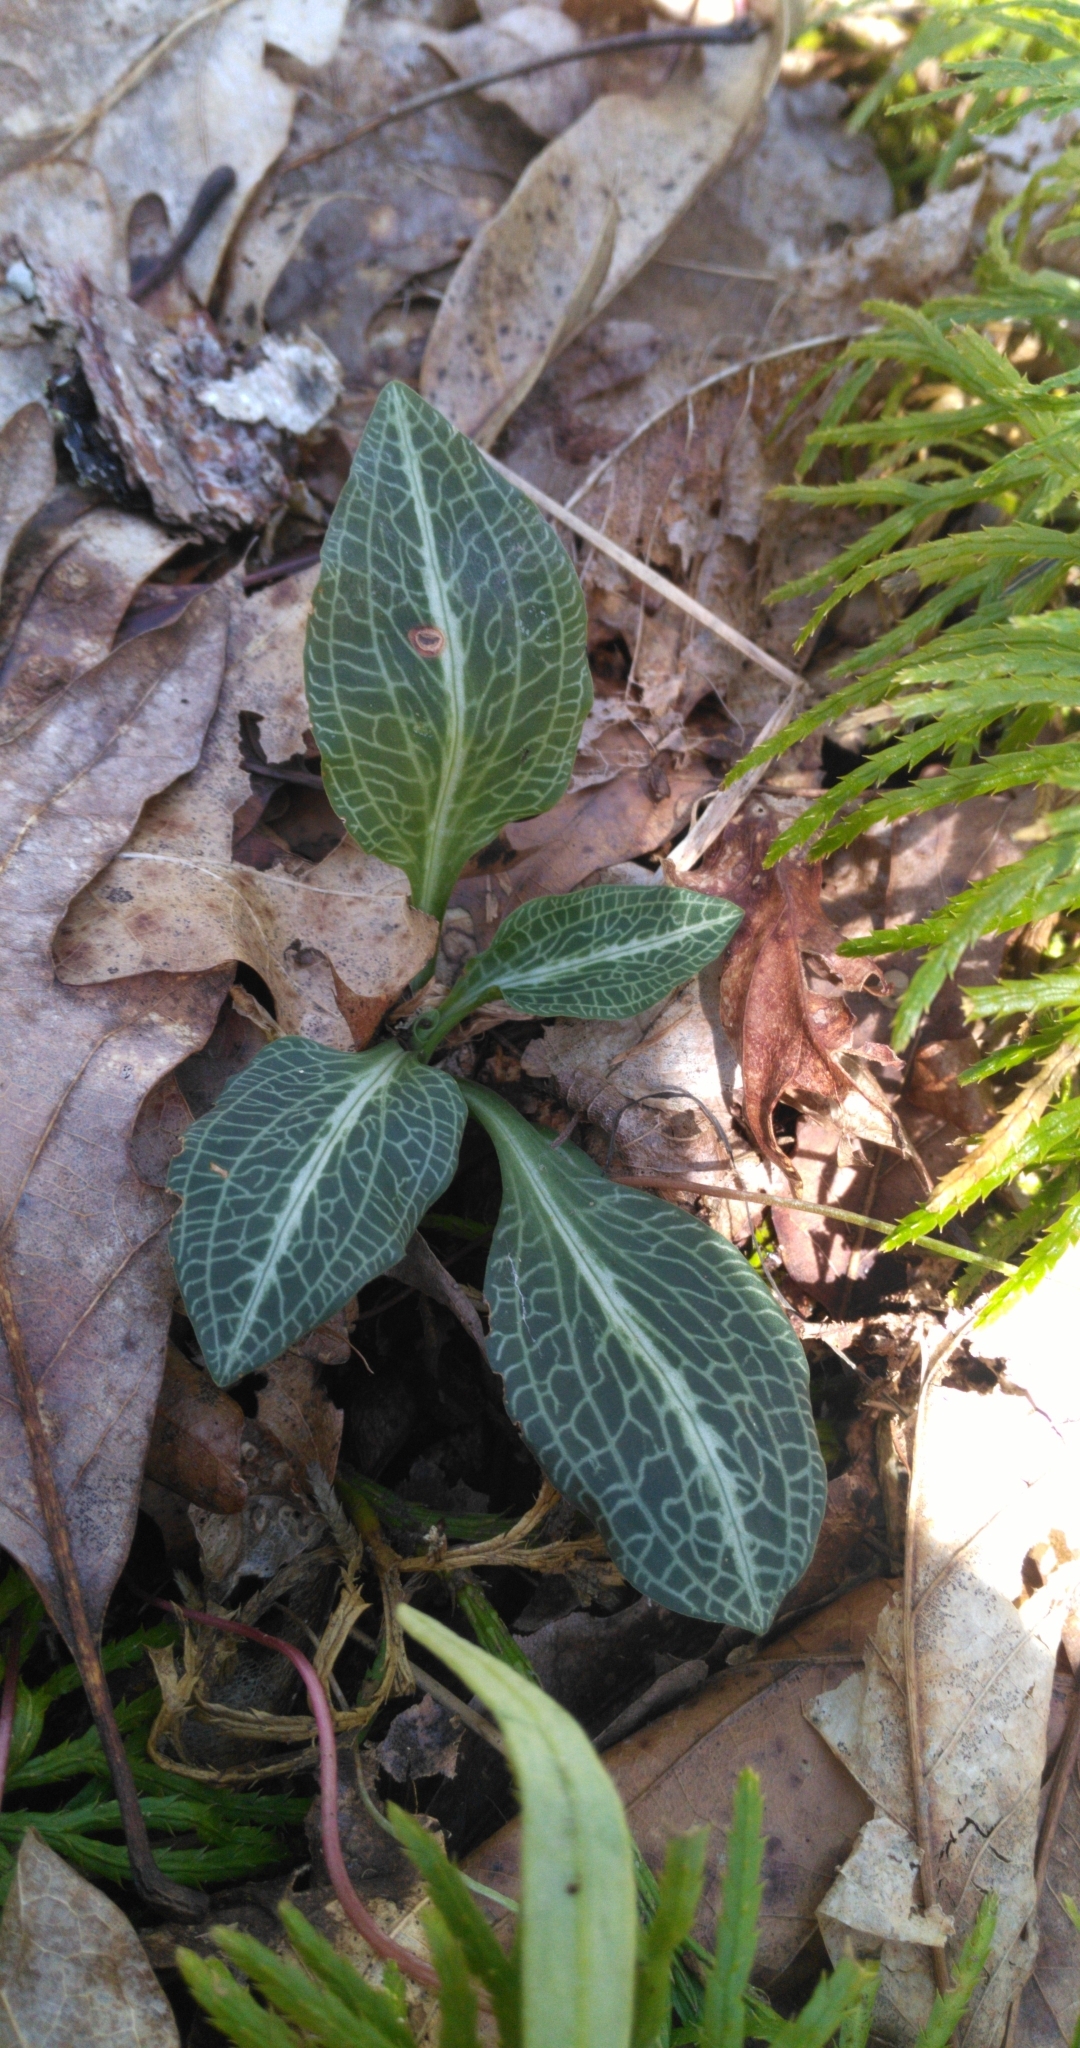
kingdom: Plantae
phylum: Tracheophyta
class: Liliopsida
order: Asparagales
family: Orchidaceae
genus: Goodyera
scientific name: Goodyera pubescens
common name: Downy rattlesnake-plantain
